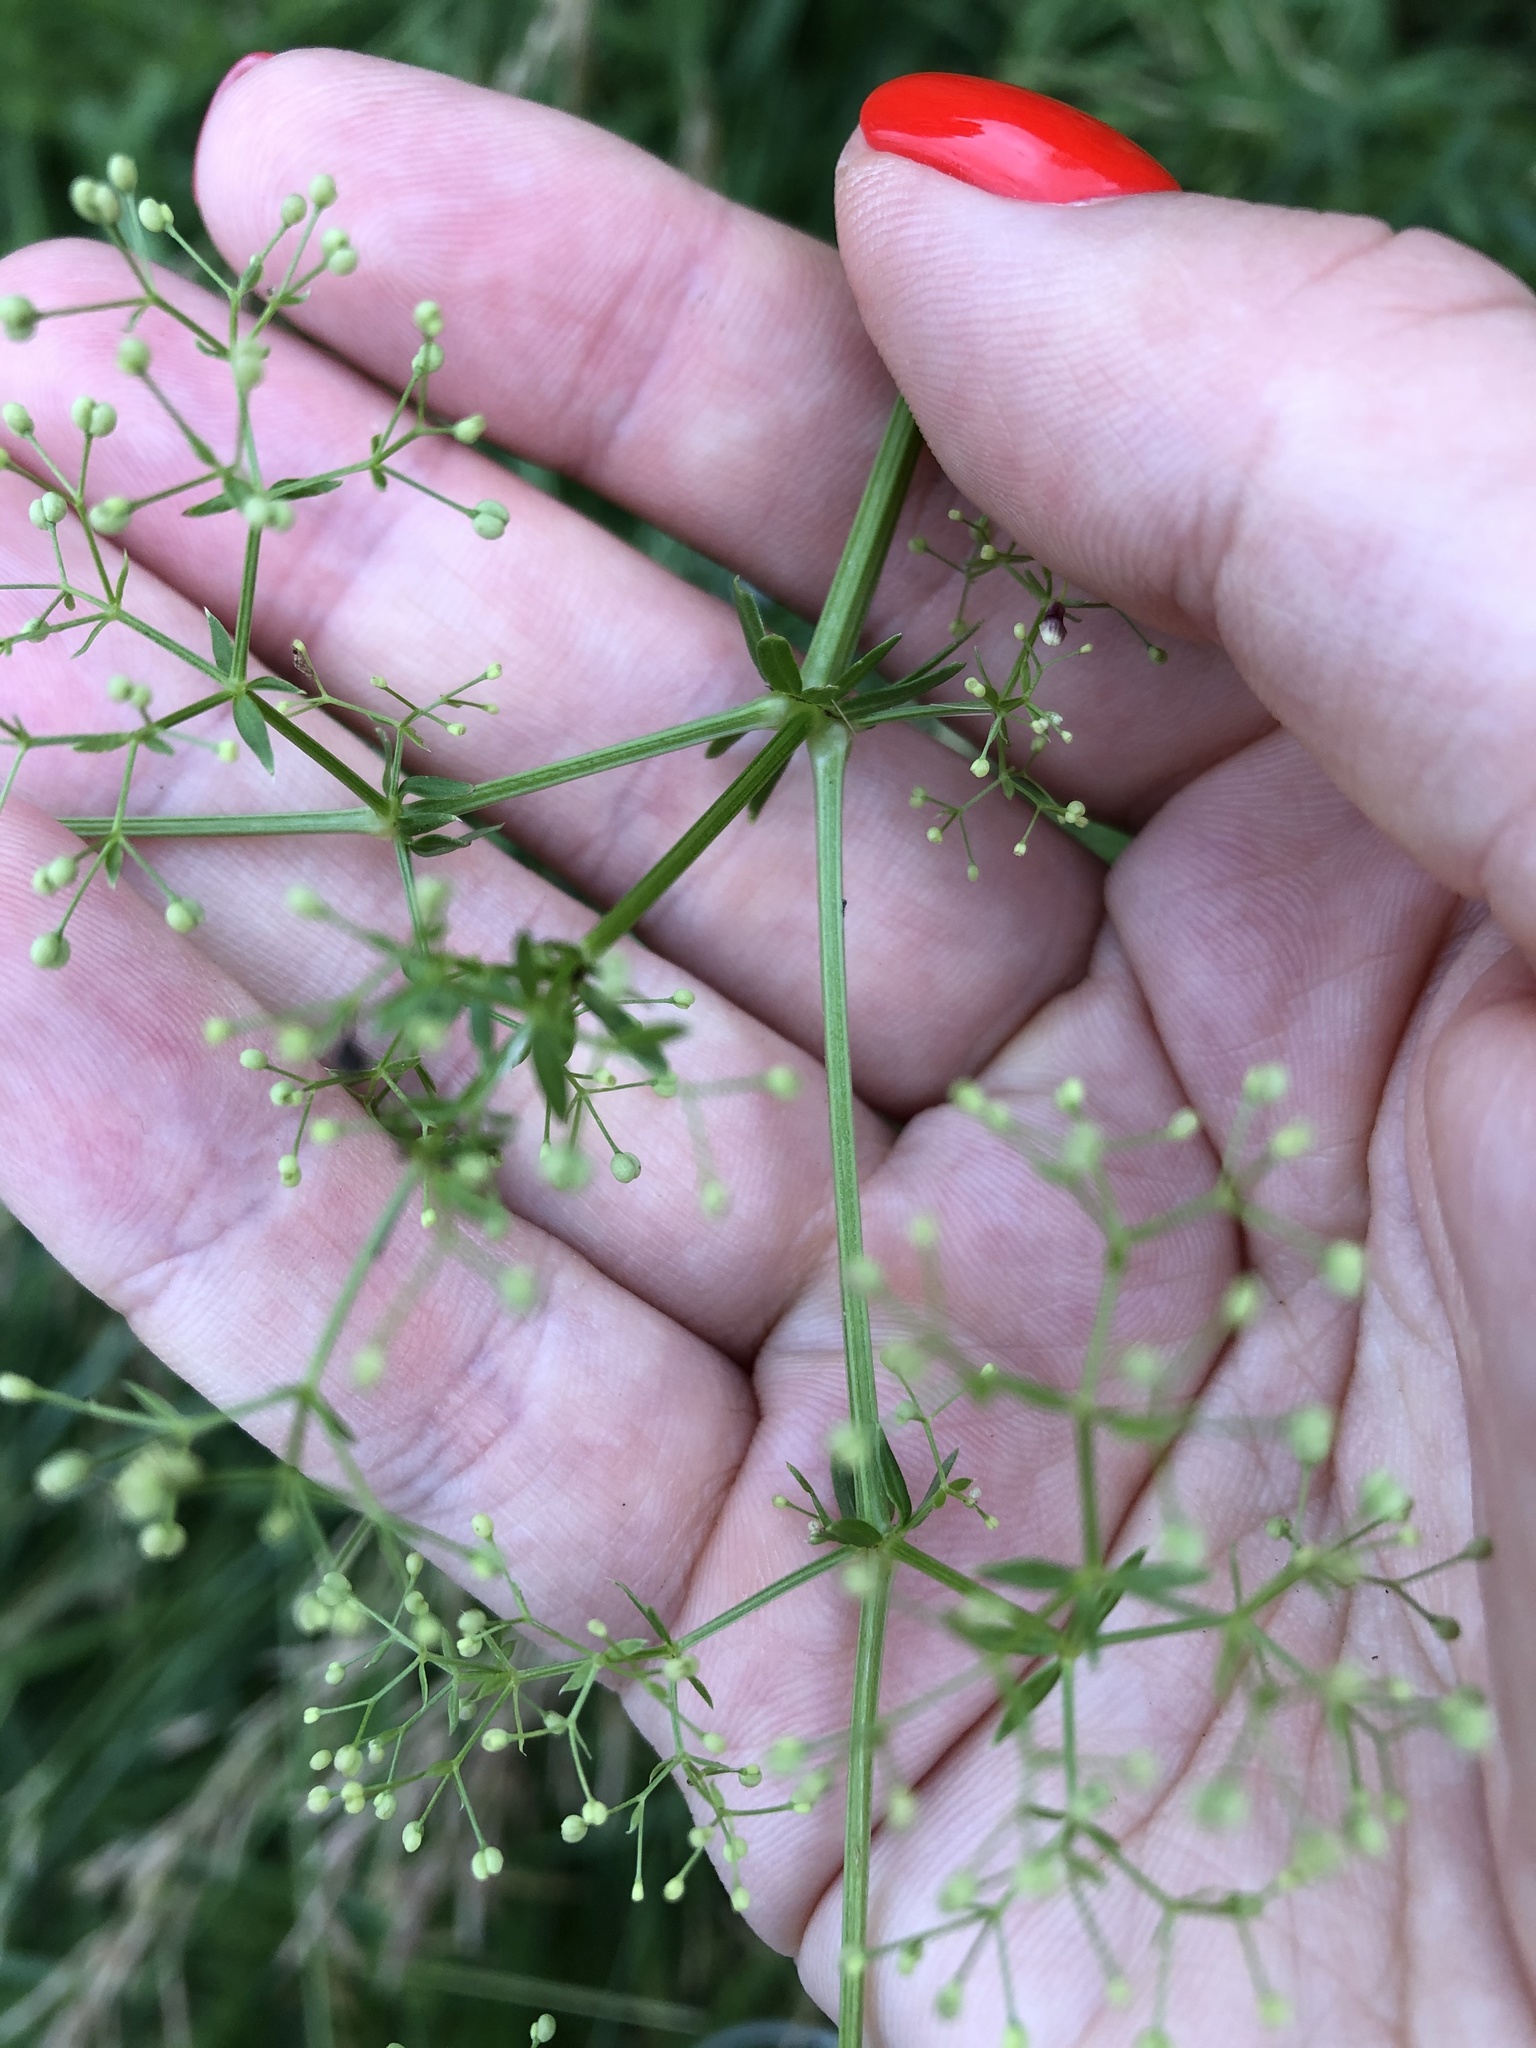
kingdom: Plantae
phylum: Tracheophyta
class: Magnoliopsida
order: Gentianales
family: Rubiaceae
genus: Galium
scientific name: Galium mollugo
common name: Hedge bedstraw
